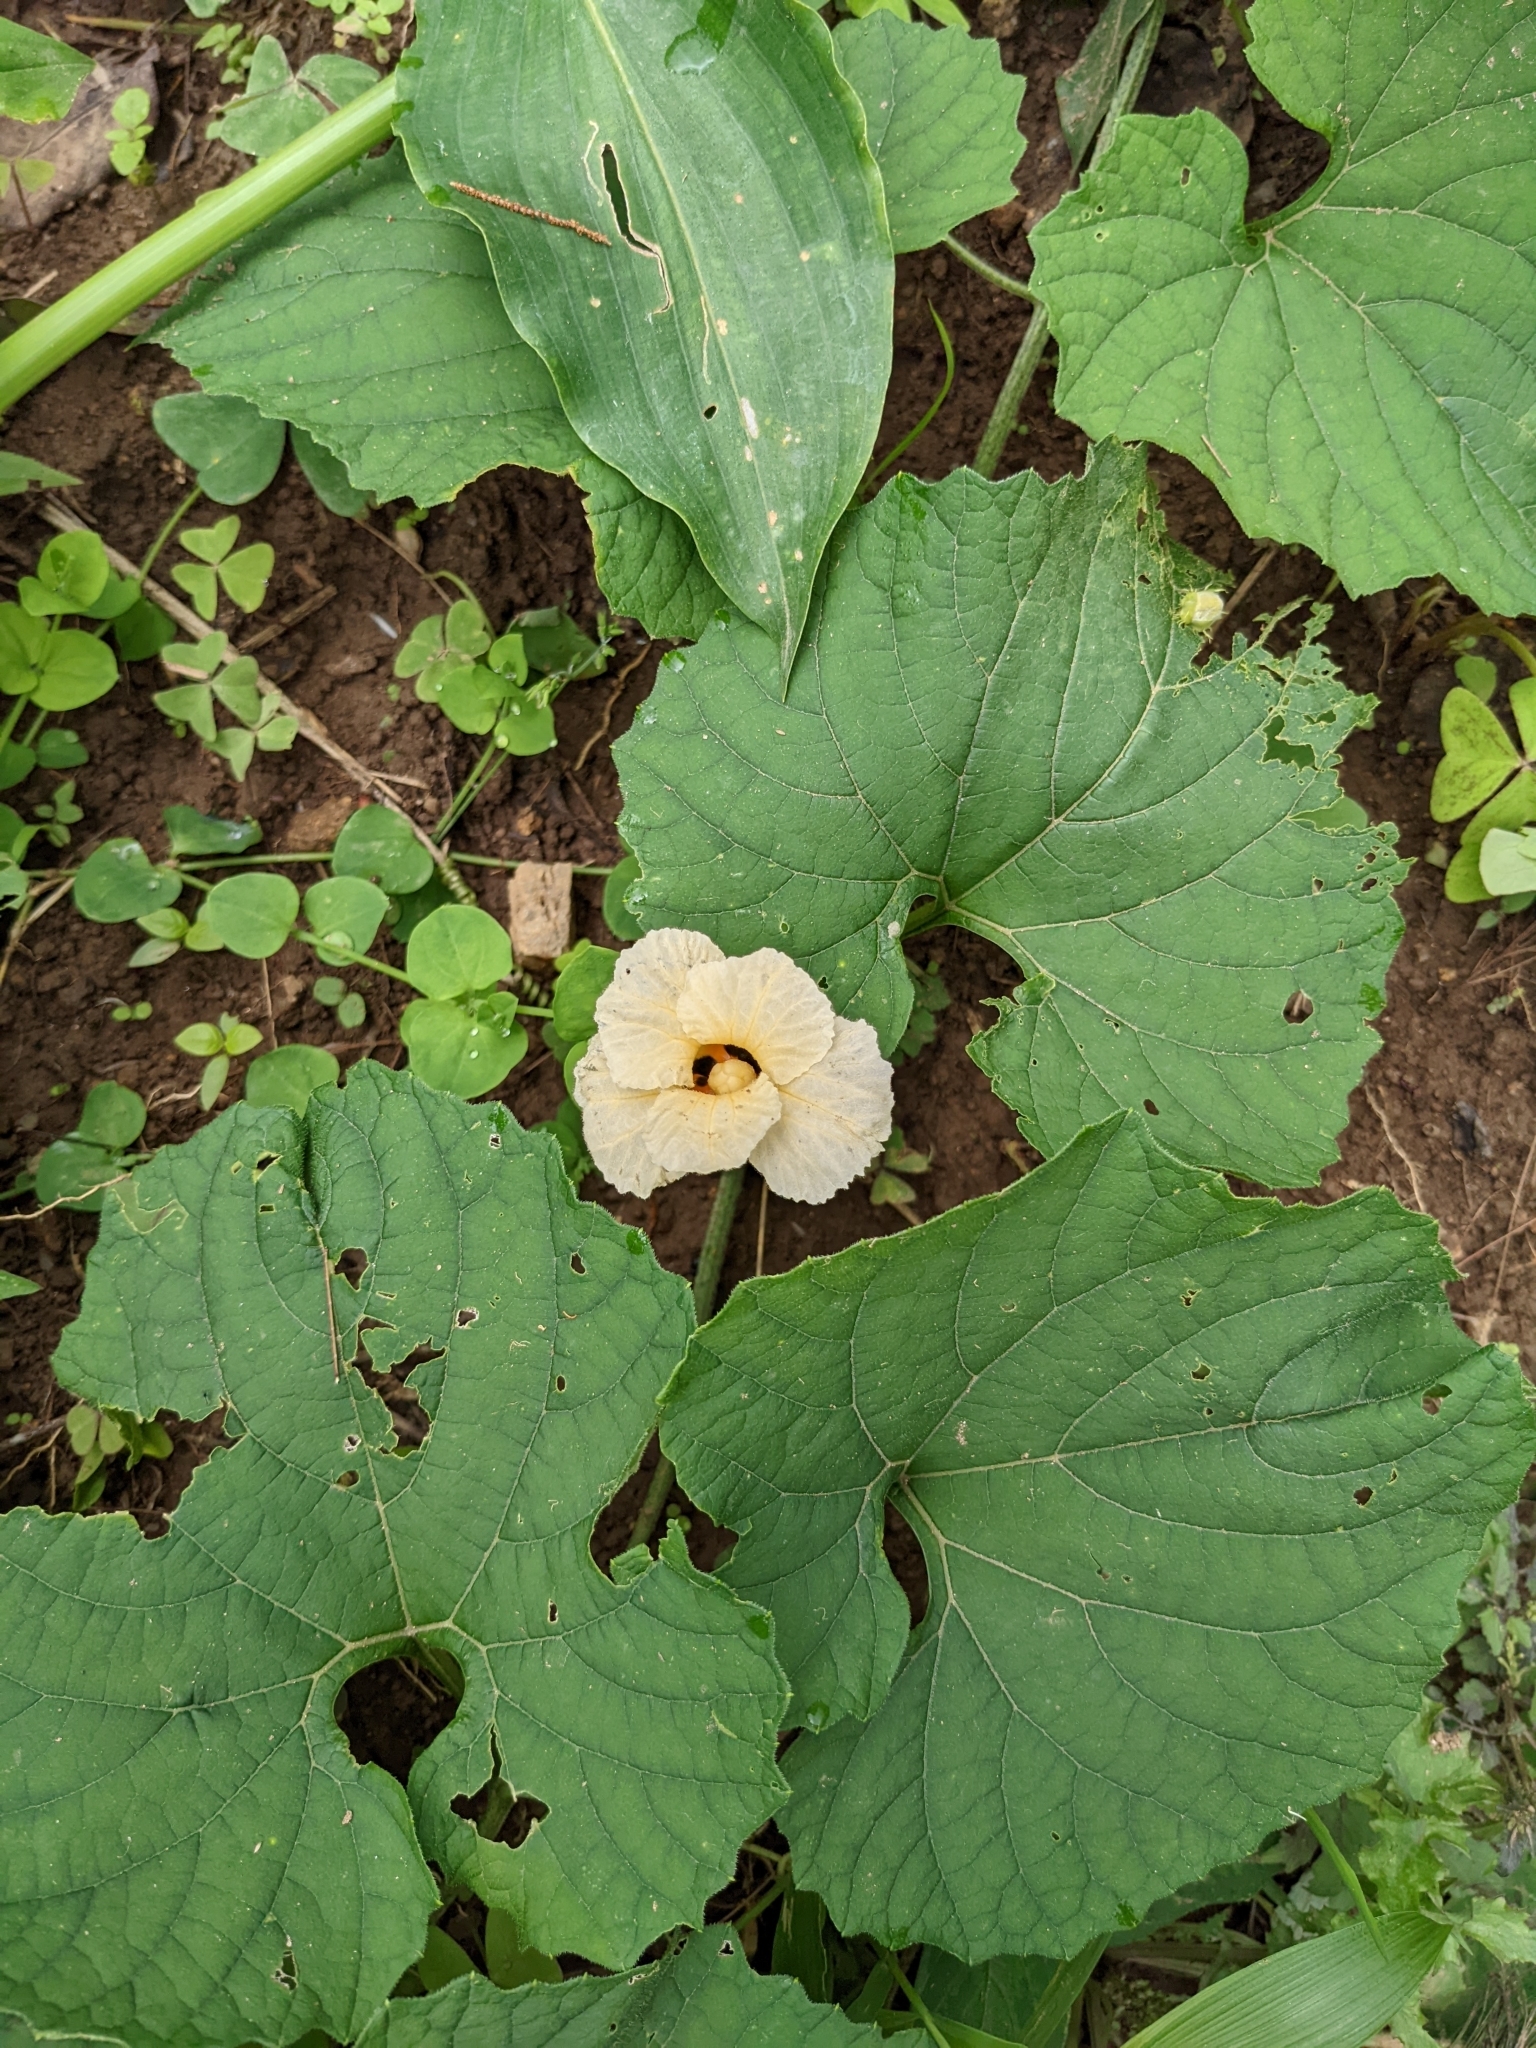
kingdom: Plantae
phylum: Tracheophyta
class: Magnoliopsida
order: Cucurbitales
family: Cucurbitaceae
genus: Momordica
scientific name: Momordica foetida
